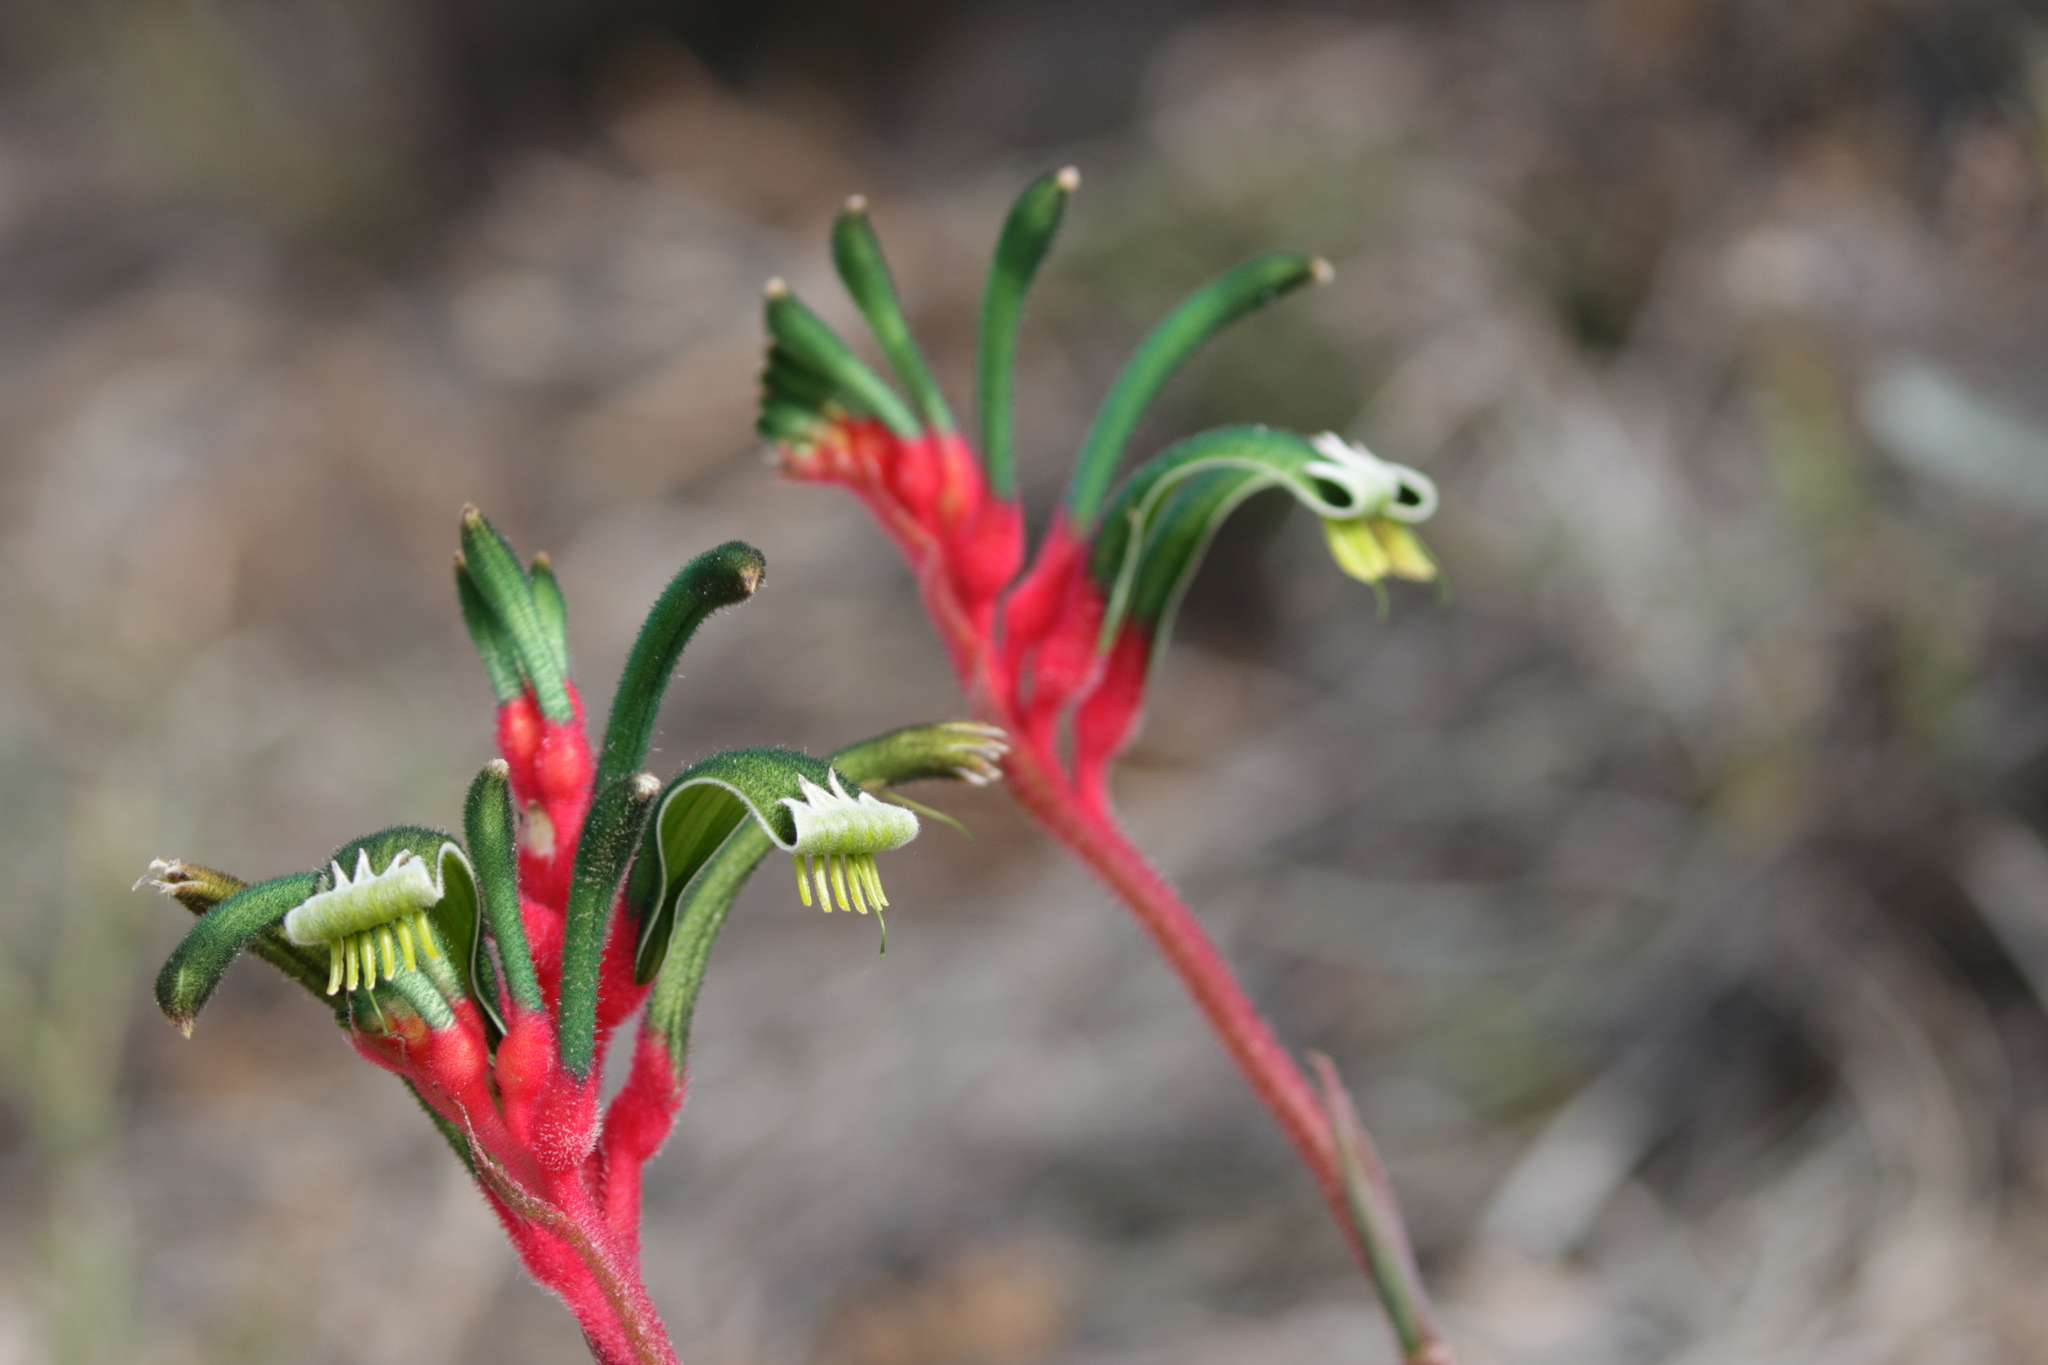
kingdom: Plantae
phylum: Tracheophyta
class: Liliopsida
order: Commelinales
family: Haemodoraceae
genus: Anigozanthos
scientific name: Anigozanthos manglesii
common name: Mangles's kangaroo-paw
